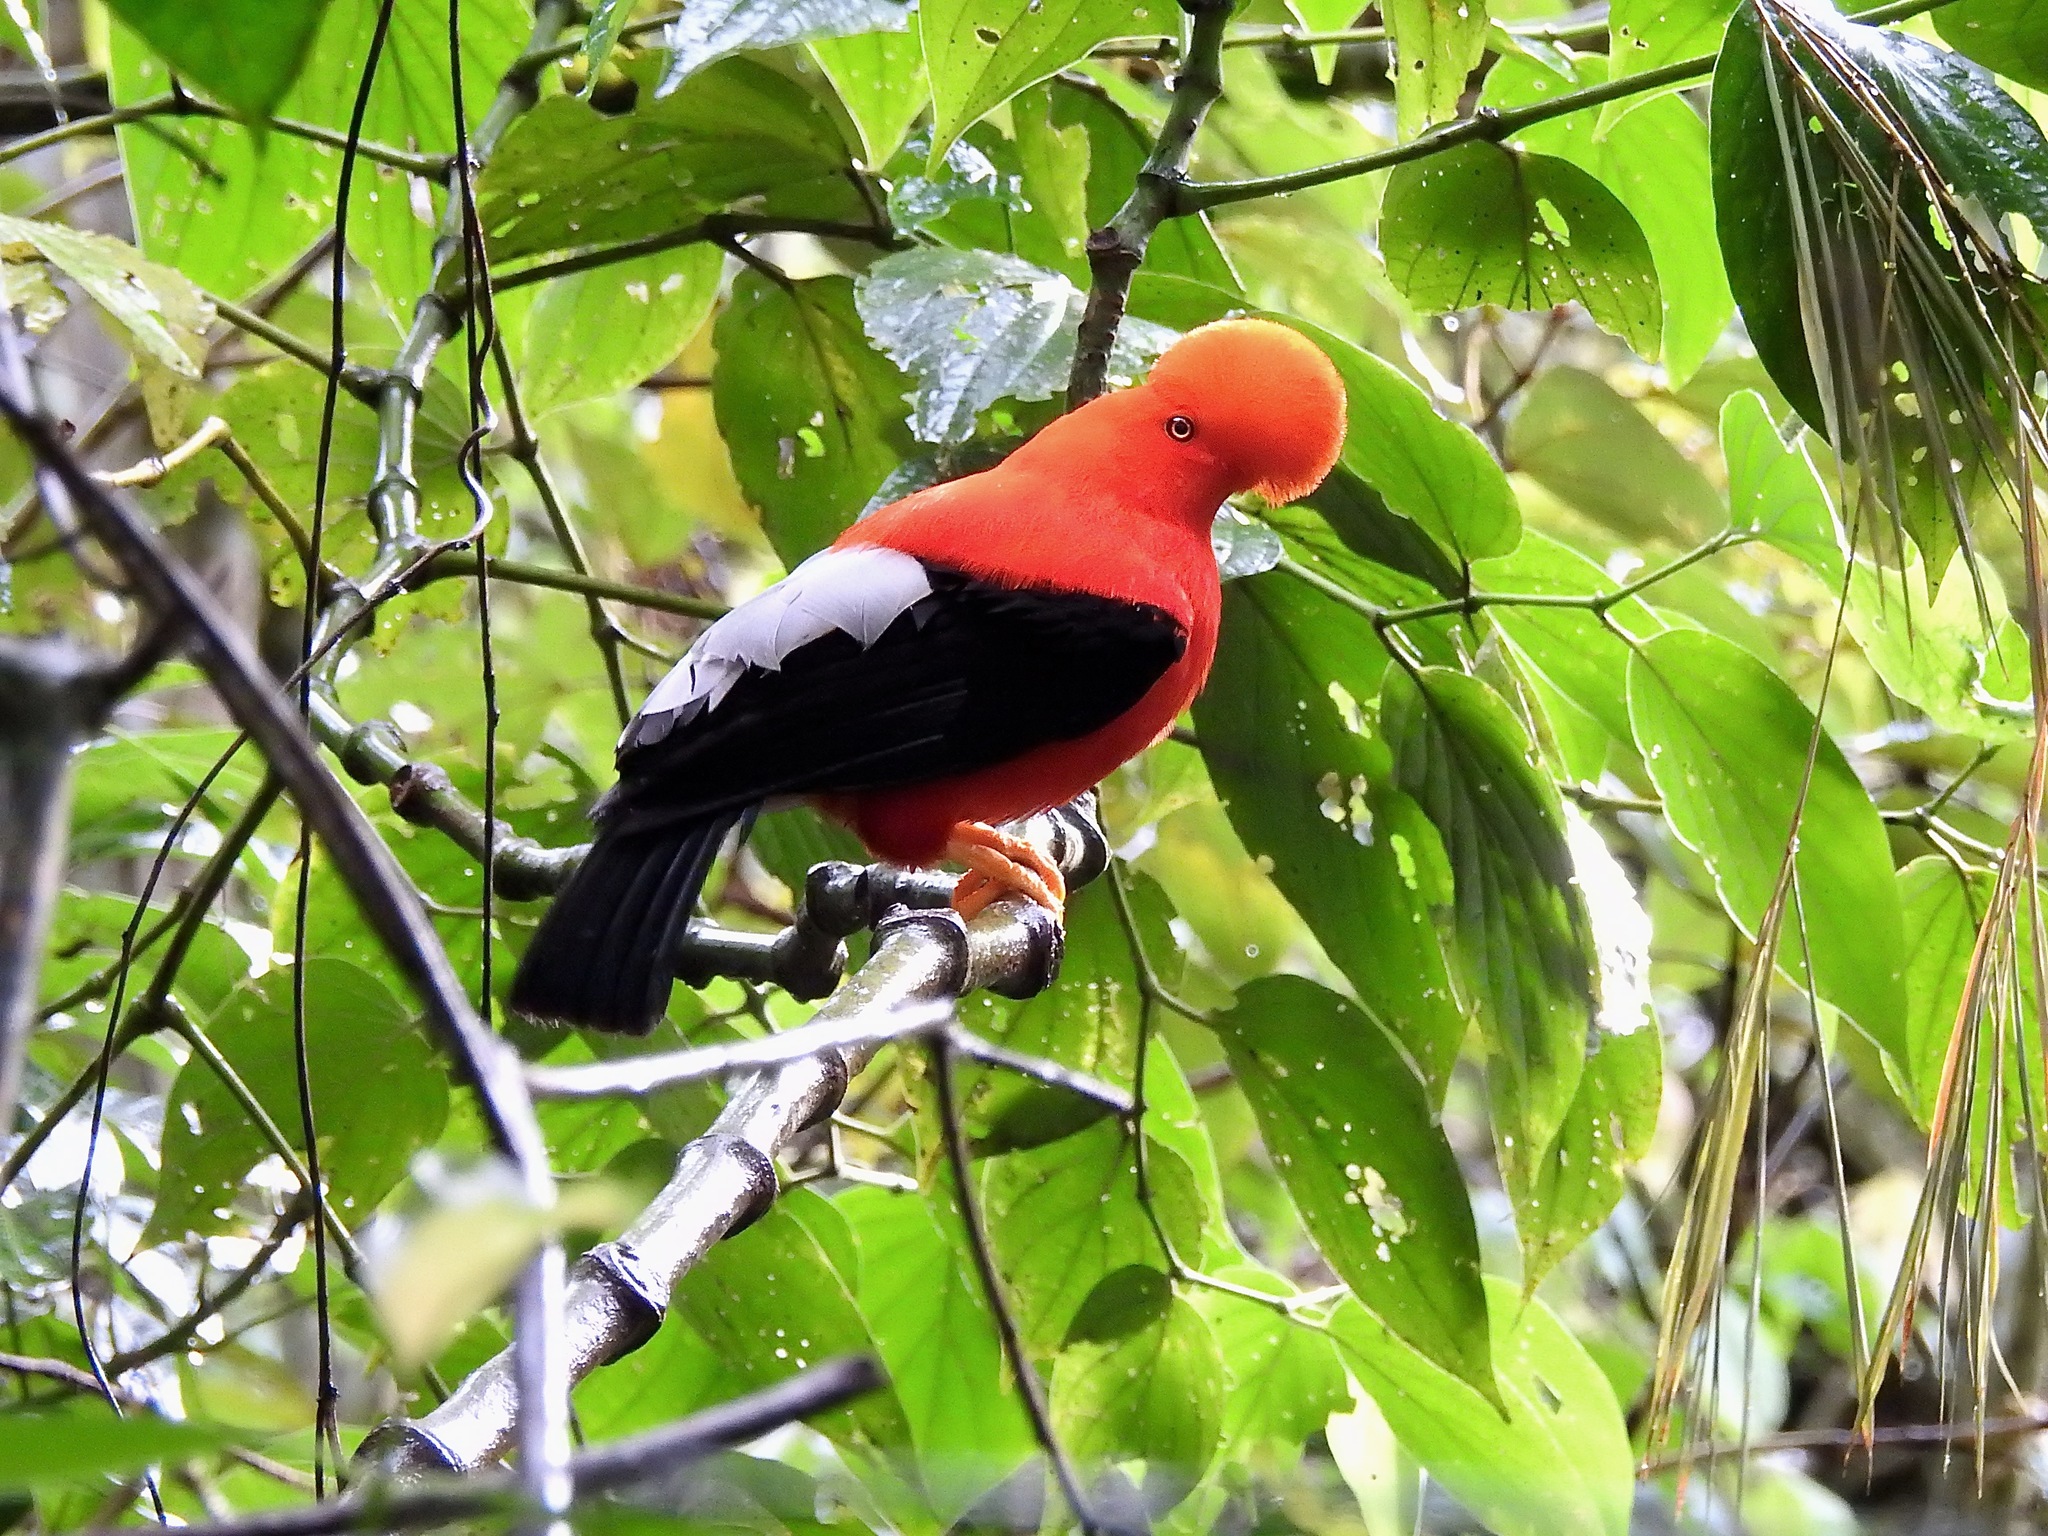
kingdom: Animalia
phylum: Chordata
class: Aves
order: Passeriformes
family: Cotingidae
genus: Rupicola
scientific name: Rupicola peruvianus
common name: Andean cock-of-the-rock
